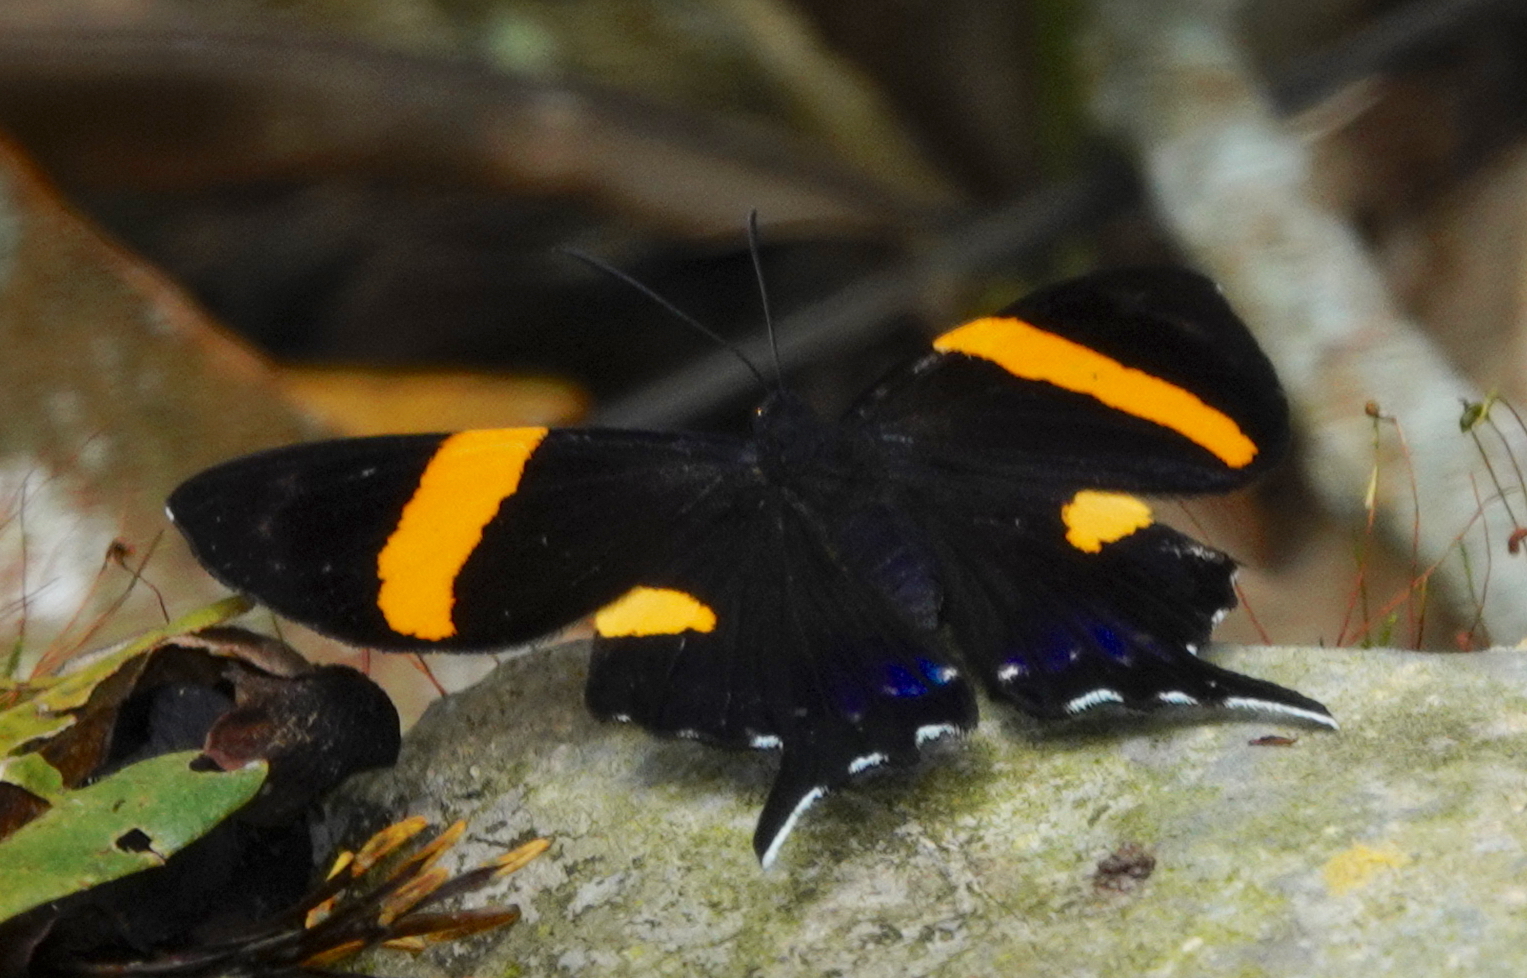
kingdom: Animalia
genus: Ancyluris
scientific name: Ancyluris inca
